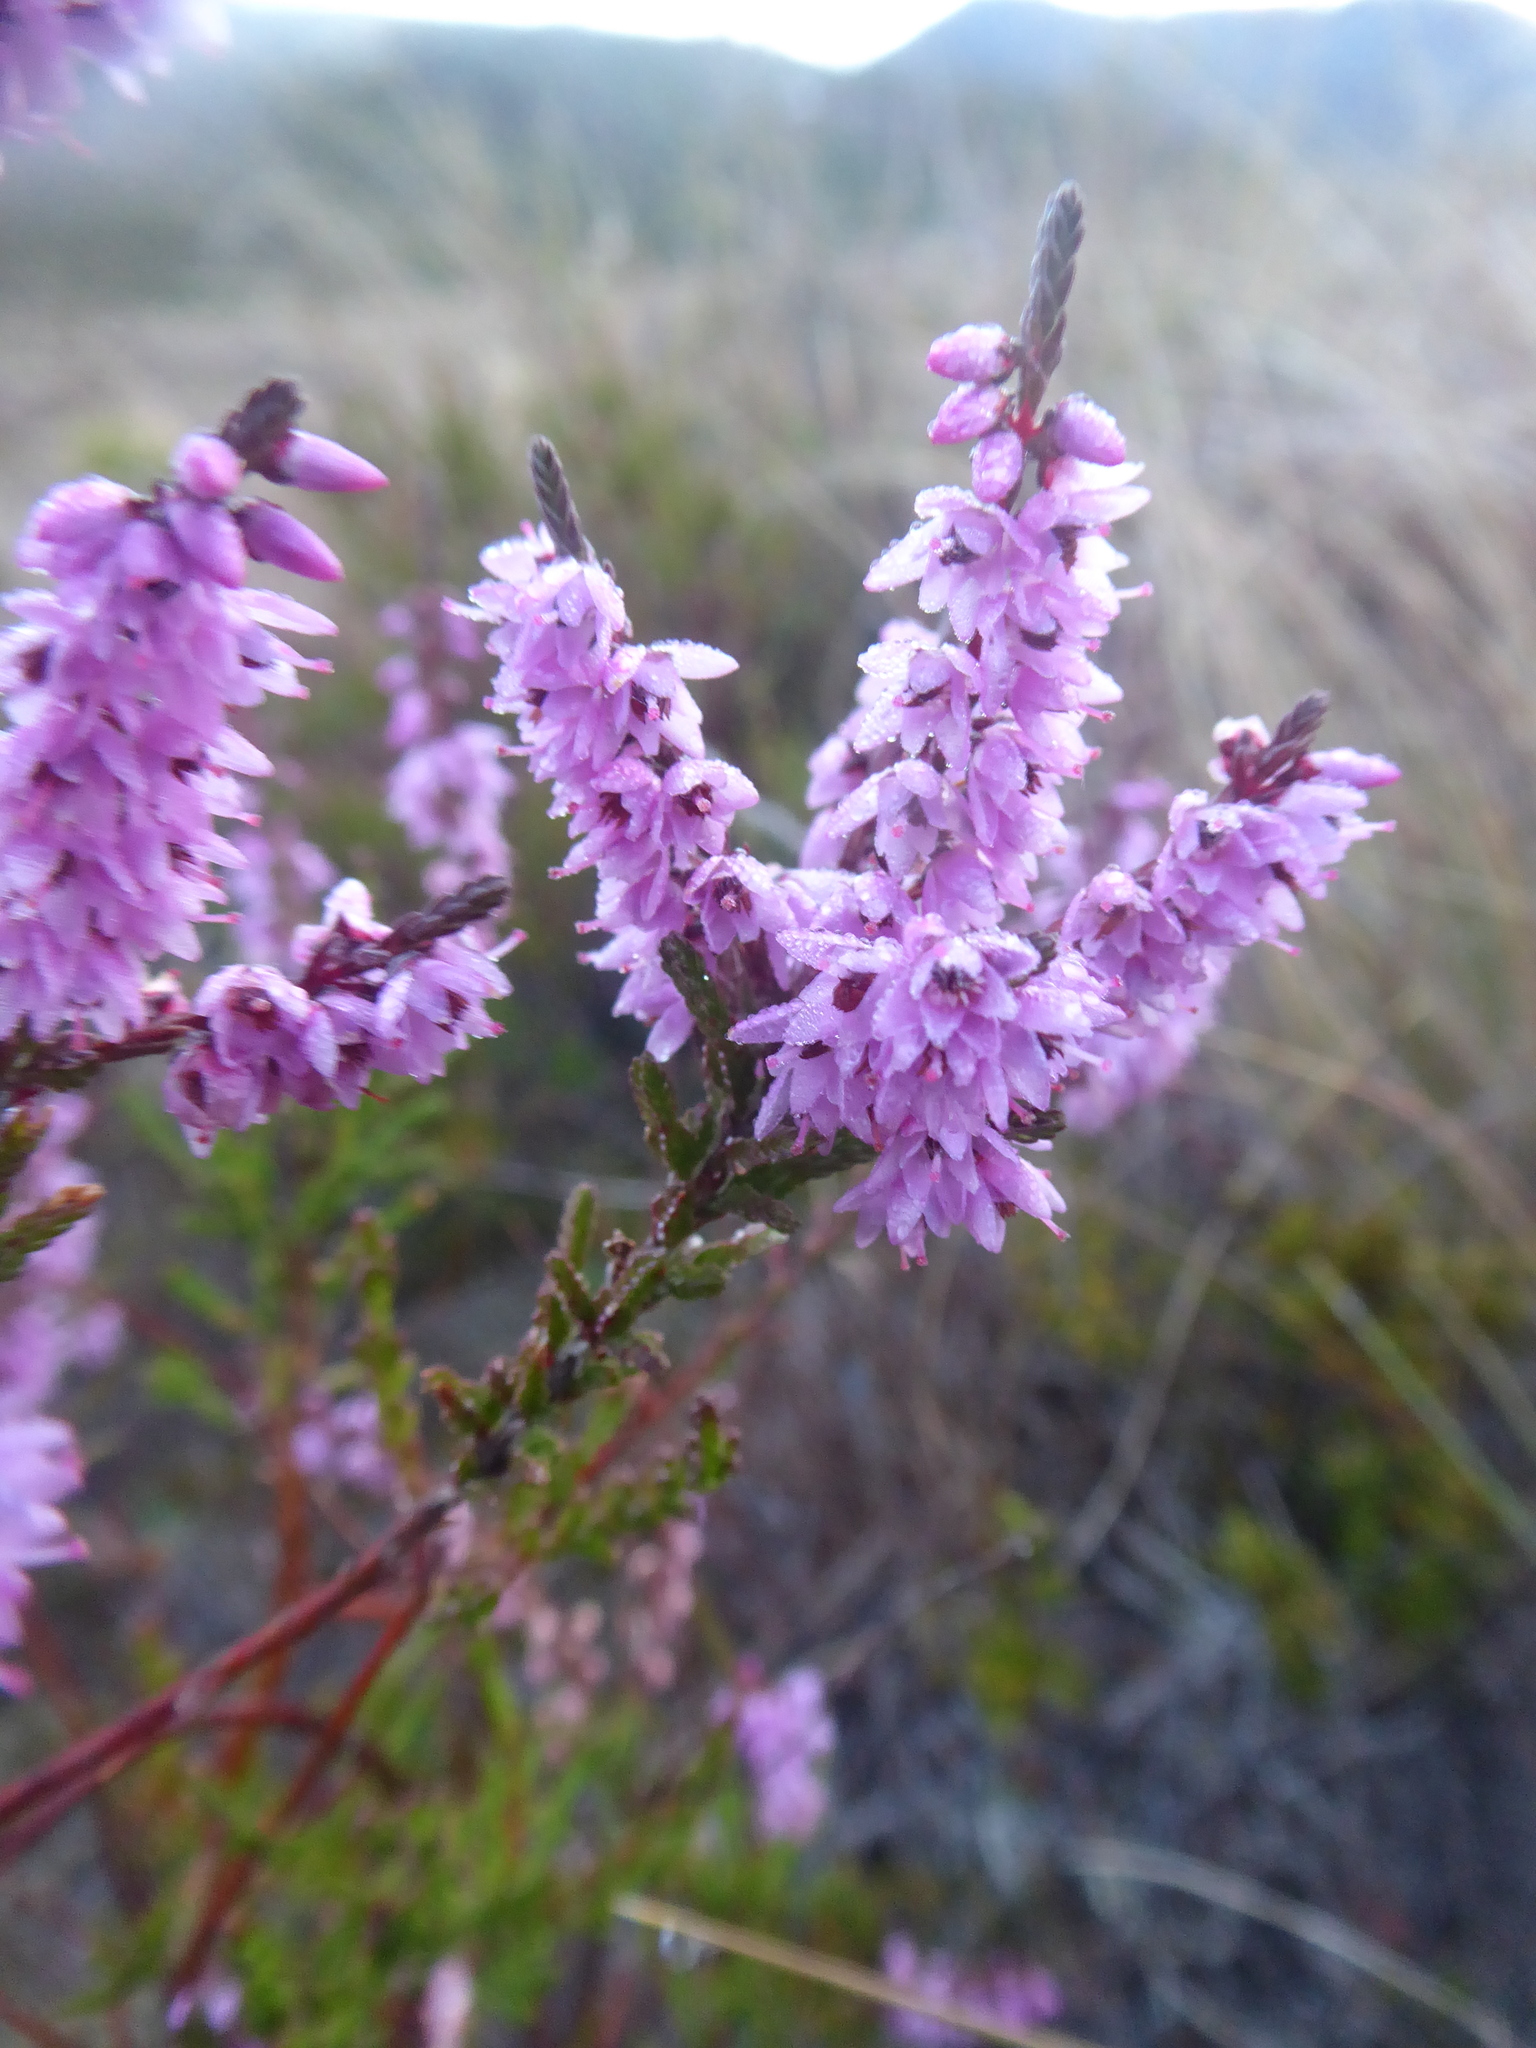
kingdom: Plantae
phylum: Tracheophyta
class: Magnoliopsida
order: Ericales
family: Ericaceae
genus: Calluna
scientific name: Calluna vulgaris
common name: Heather
